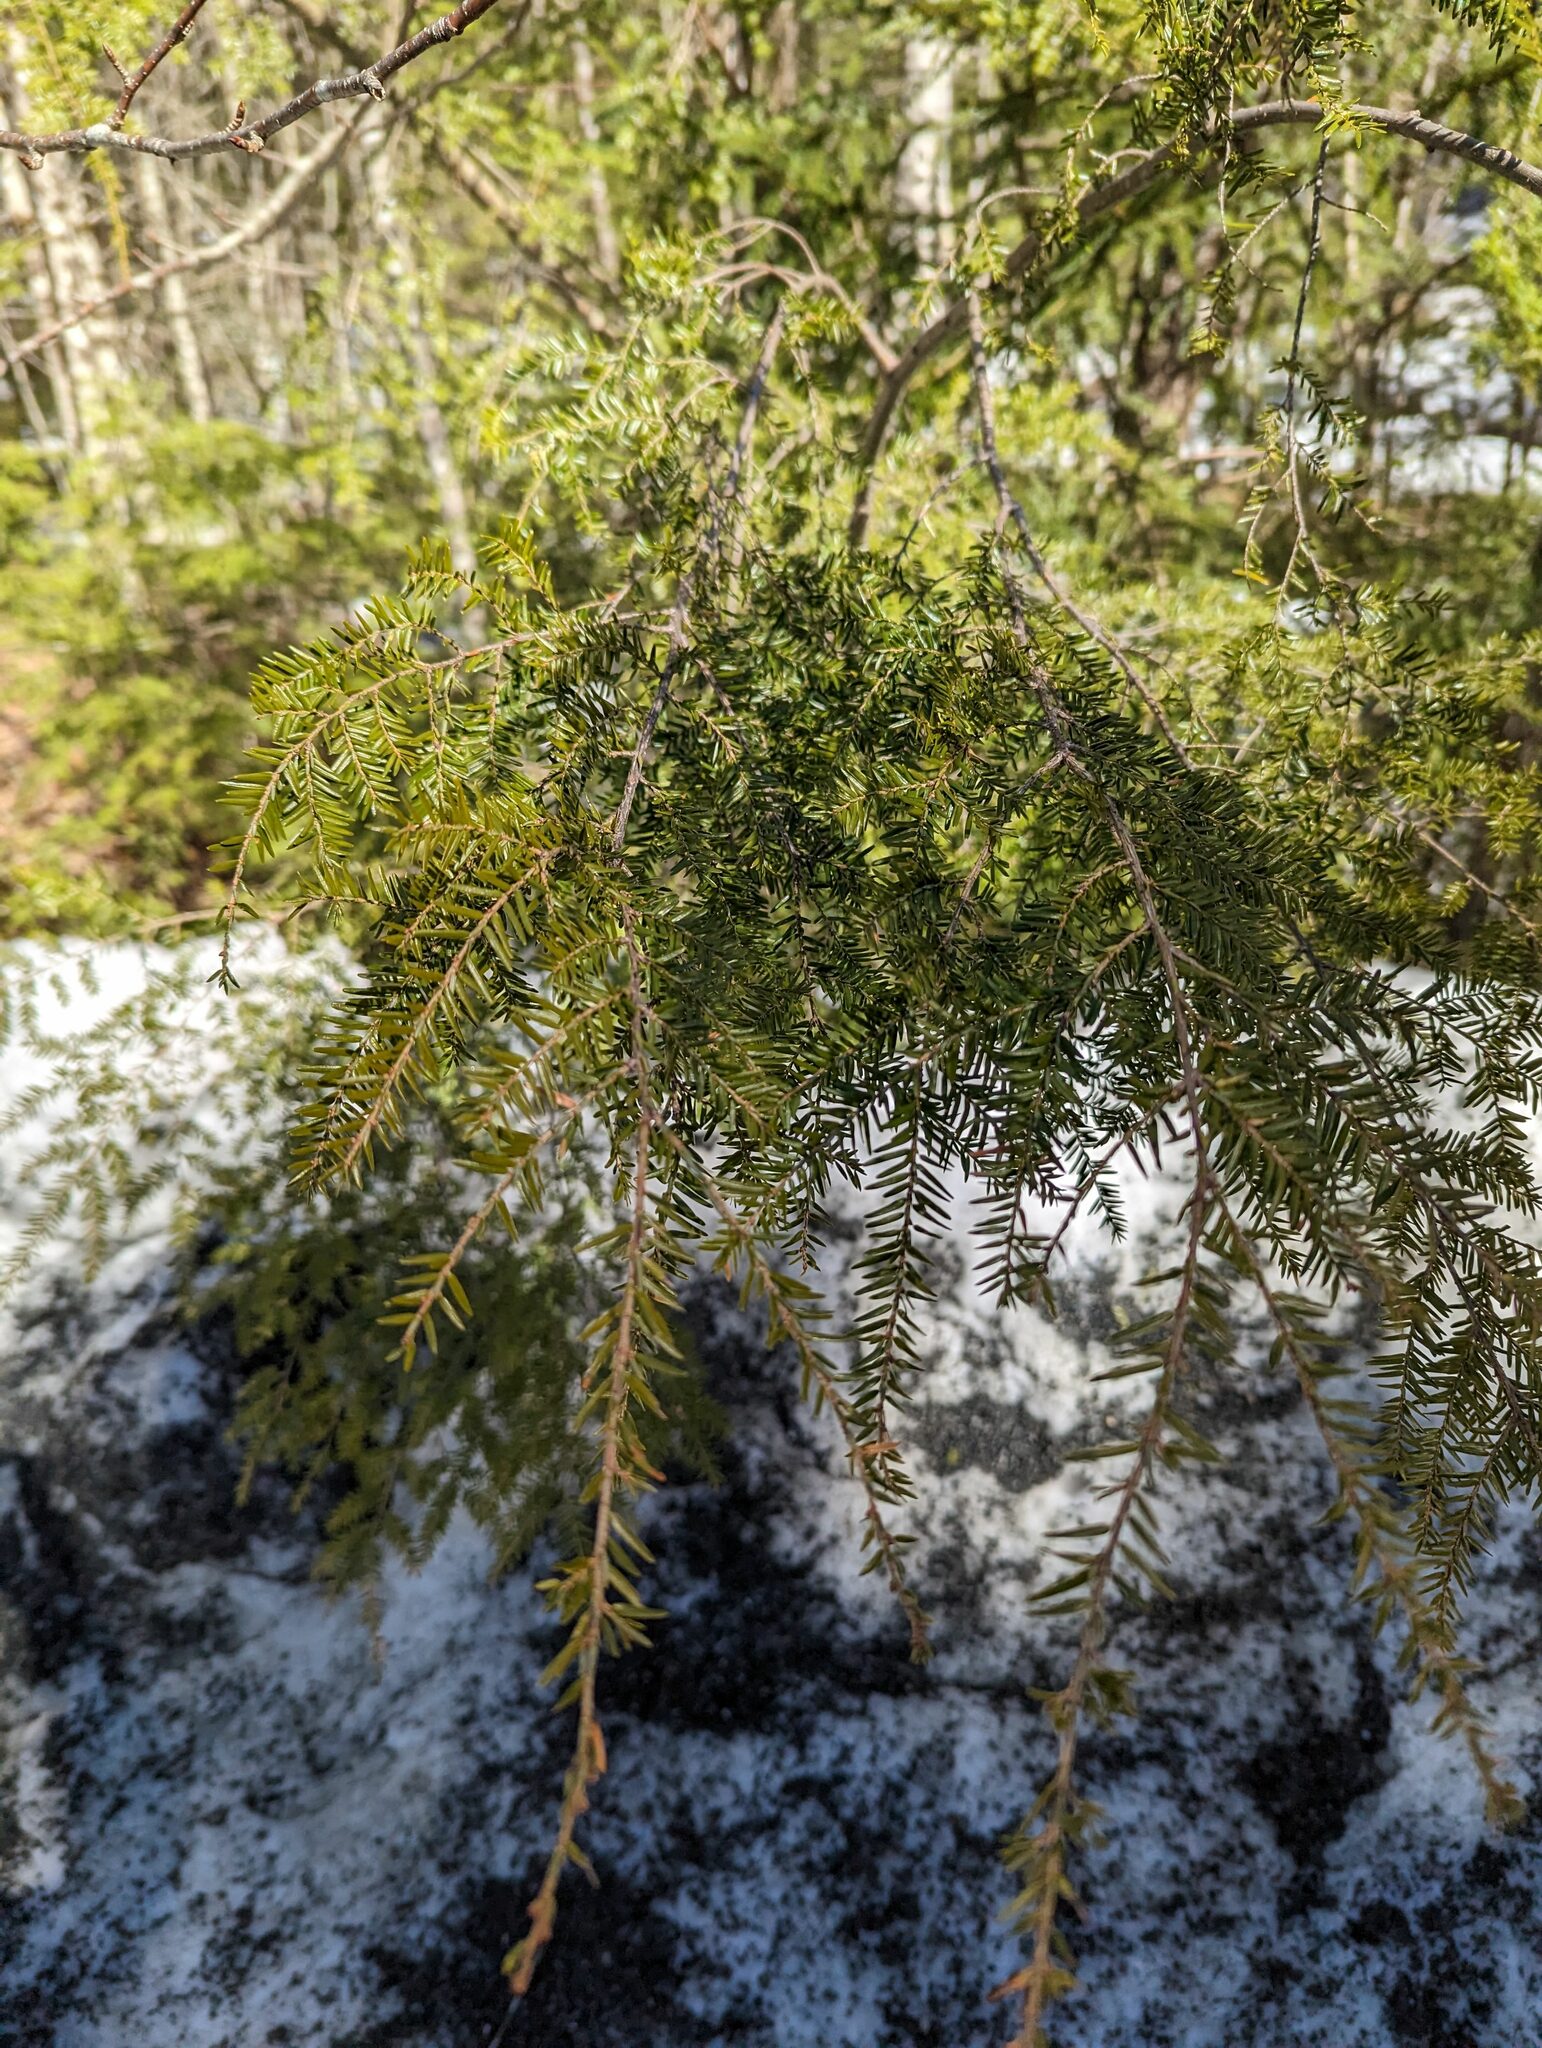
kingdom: Plantae
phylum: Tracheophyta
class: Pinopsida
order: Pinales
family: Pinaceae
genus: Tsuga
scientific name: Tsuga canadensis
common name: Eastern hemlock
